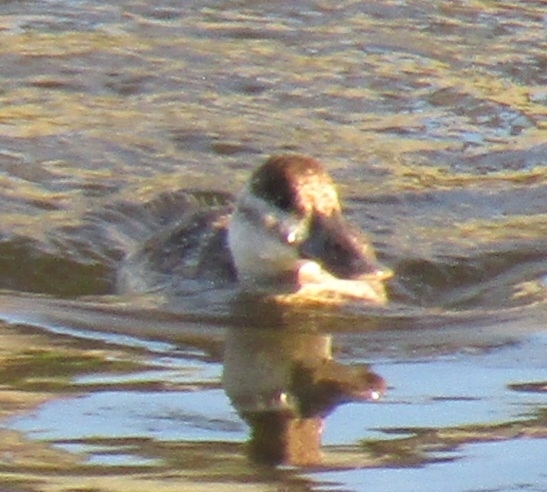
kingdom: Animalia
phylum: Chordata
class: Aves
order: Anseriformes
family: Anatidae
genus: Oxyura
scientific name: Oxyura jamaicensis
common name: Ruddy duck
